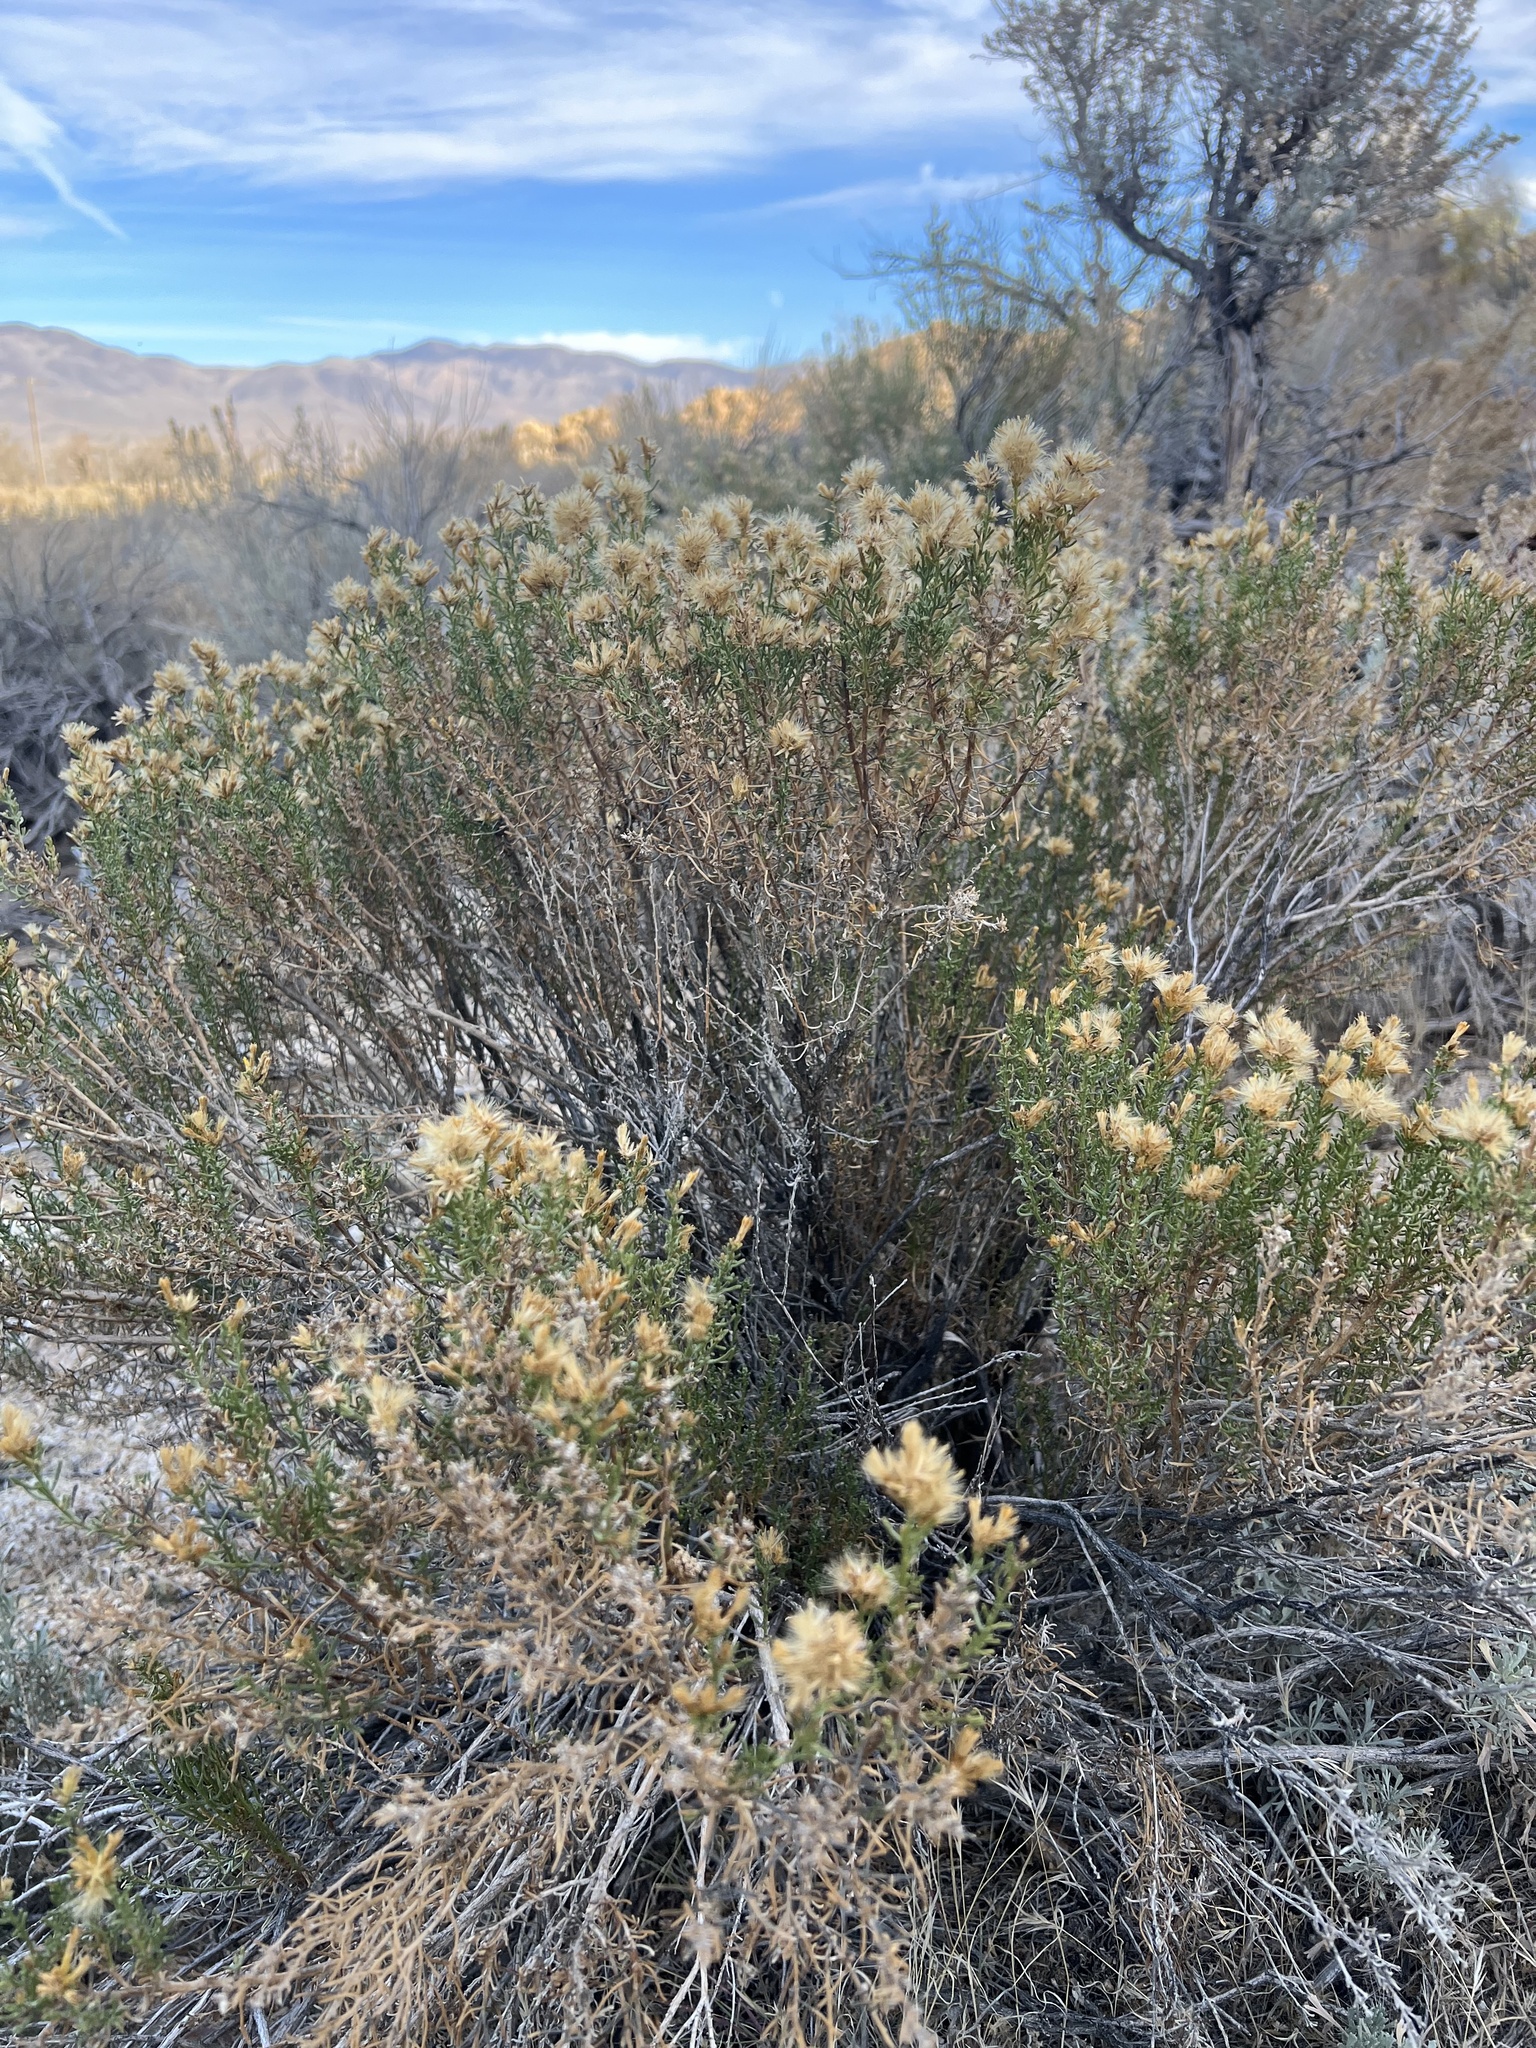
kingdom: Plantae
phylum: Tracheophyta
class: Magnoliopsida
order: Asterales
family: Asteraceae
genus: Ericameria
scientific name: Ericameria teretifolia
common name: Round-leaf rabbitbrush
